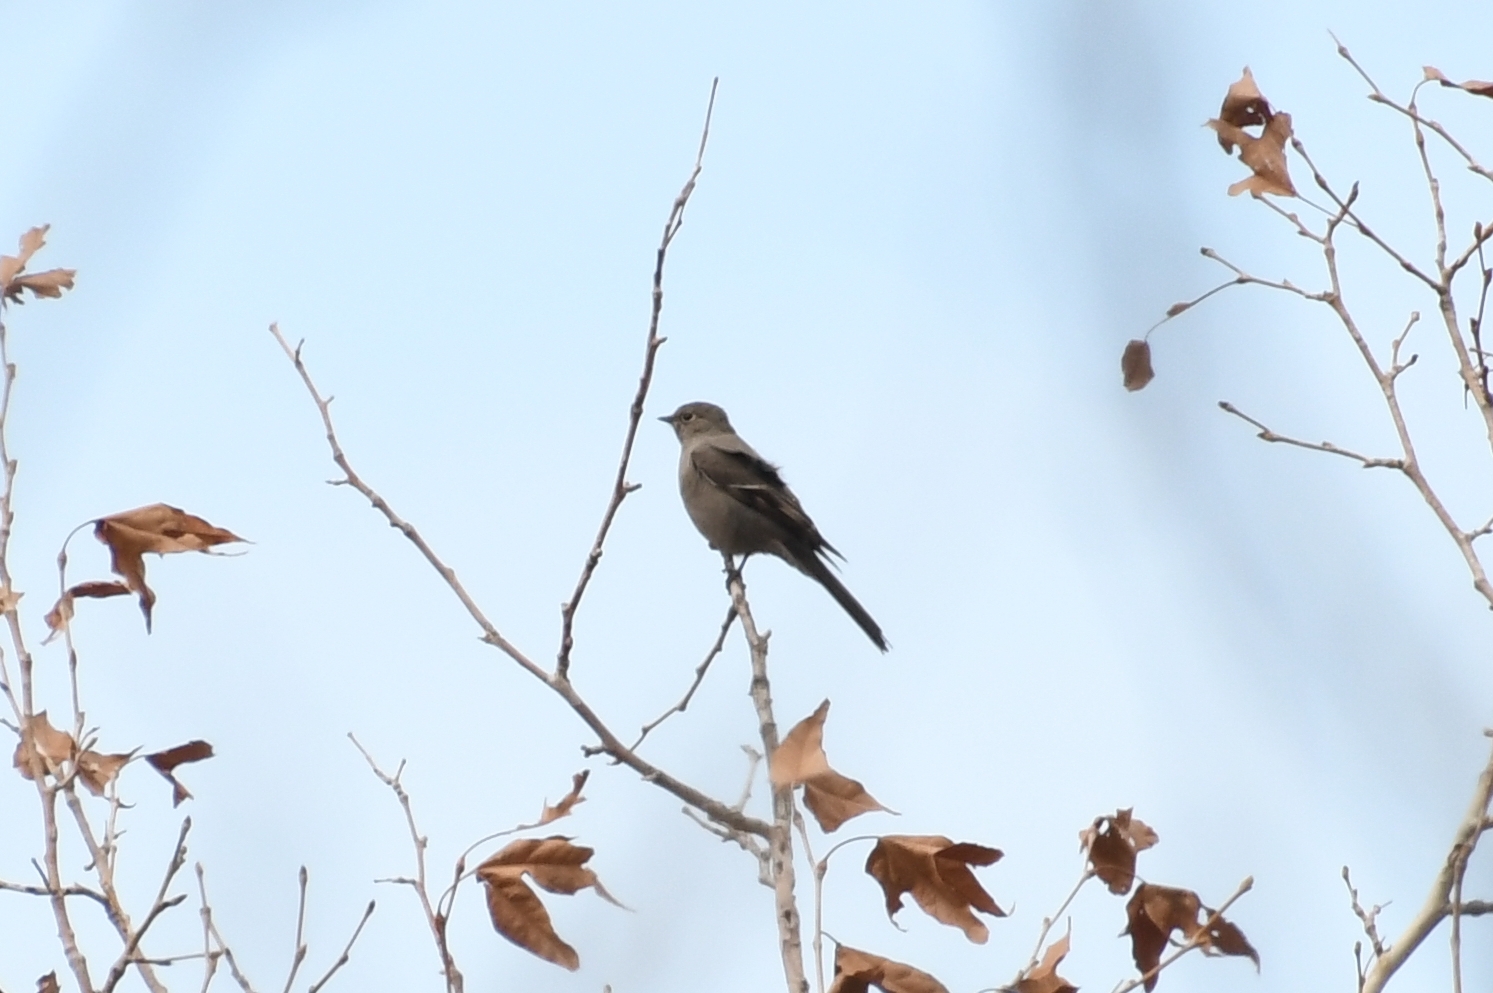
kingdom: Animalia
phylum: Chordata
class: Aves
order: Passeriformes
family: Turdidae
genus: Myadestes
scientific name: Myadestes townsendi
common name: Townsend's solitaire
